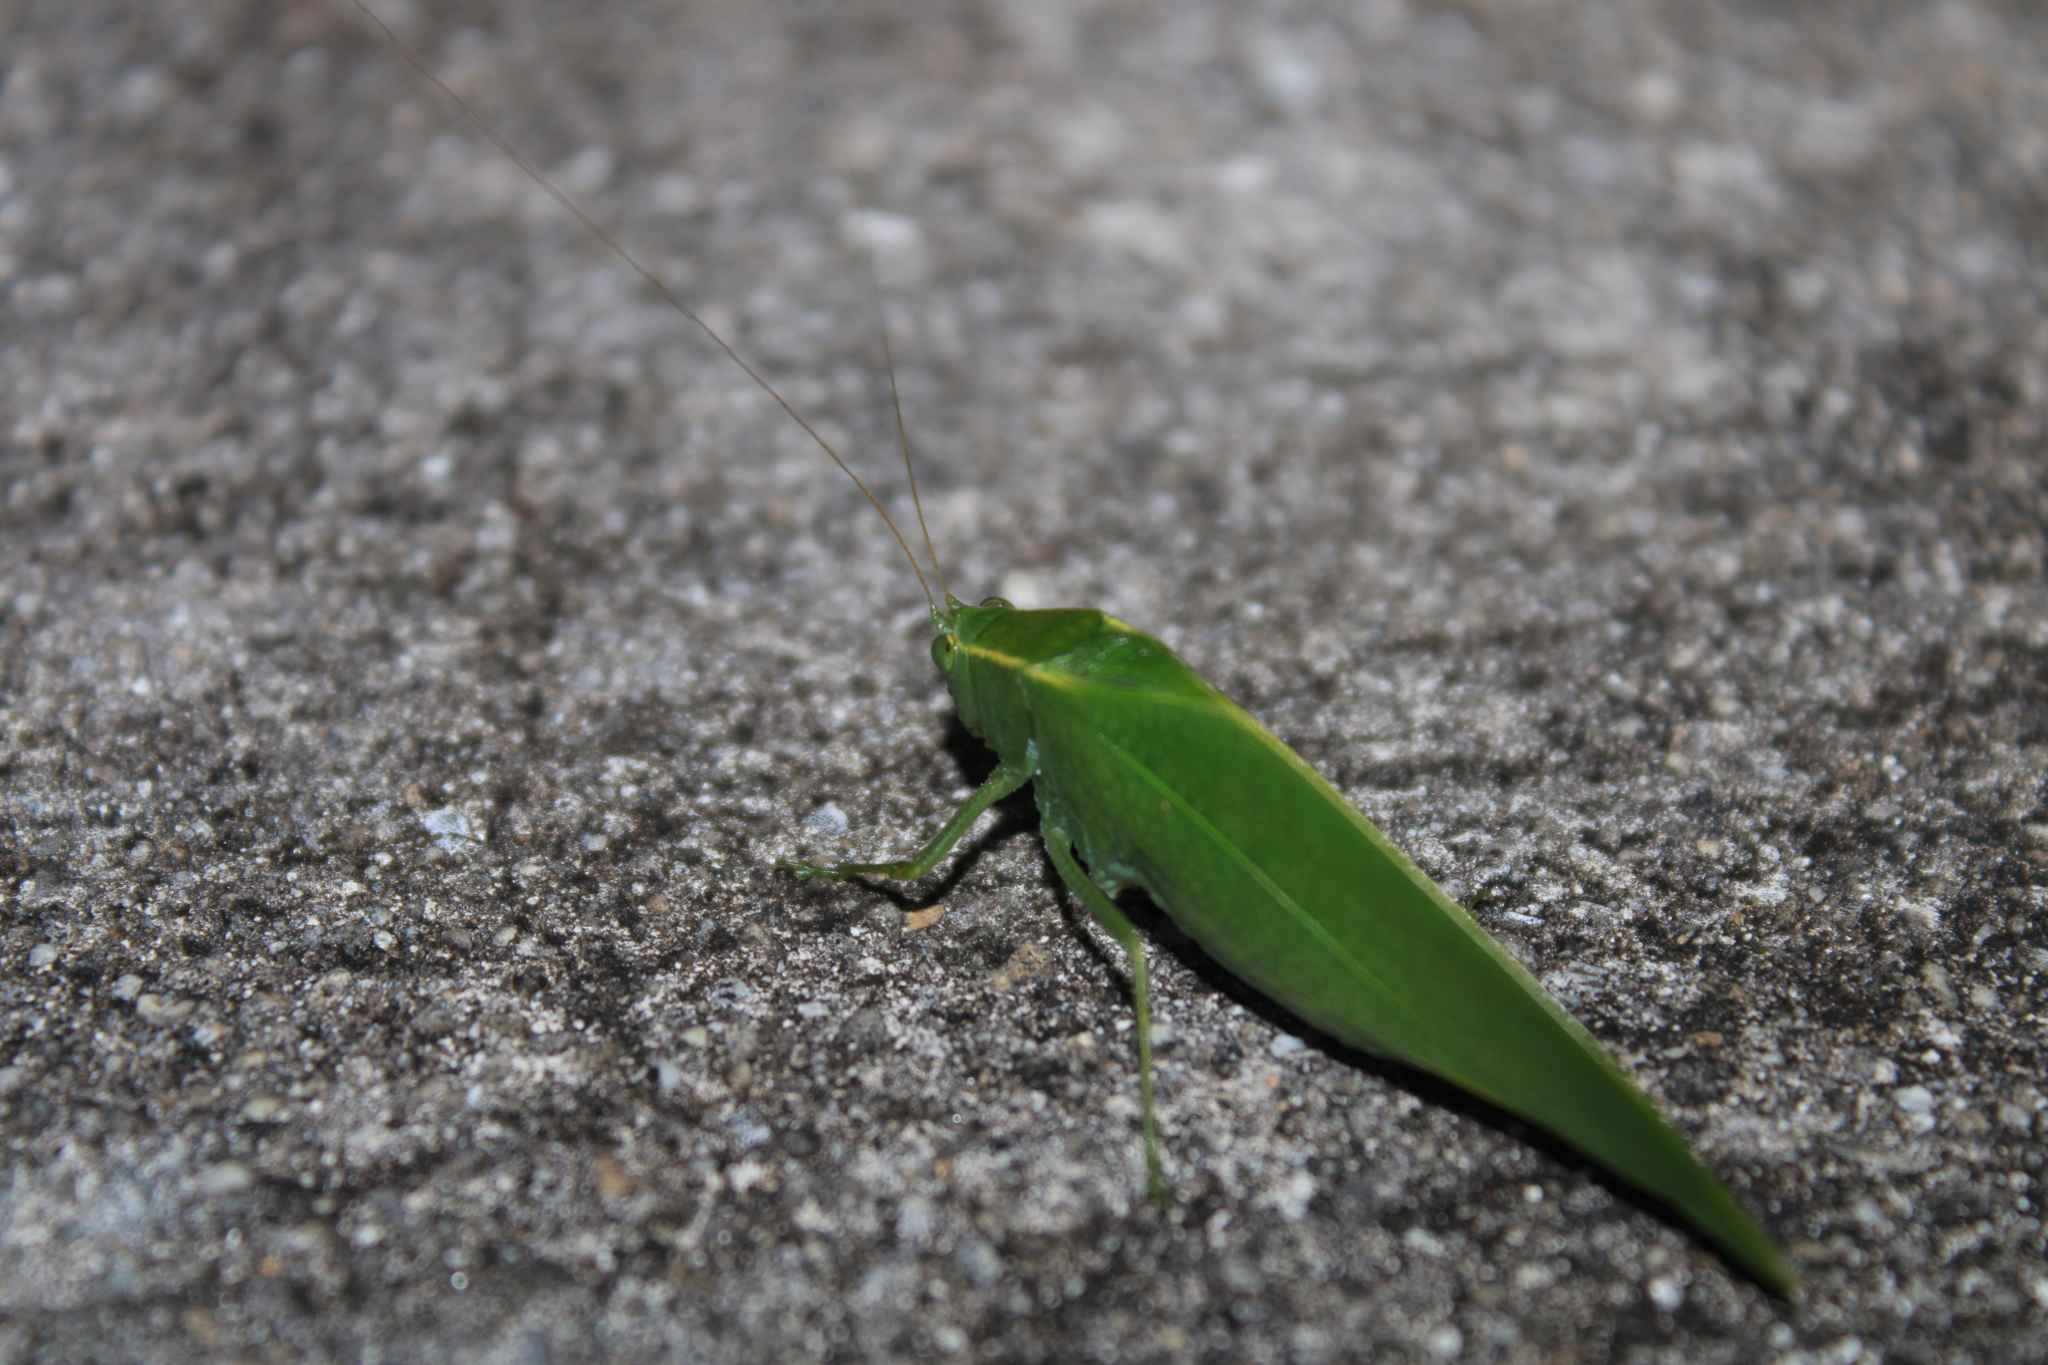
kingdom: Animalia
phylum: Arthropoda
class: Insecta
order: Orthoptera
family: Tettigoniidae
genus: Turpilia
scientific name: Turpilia rostrata
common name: Narrow-beaked katydid
